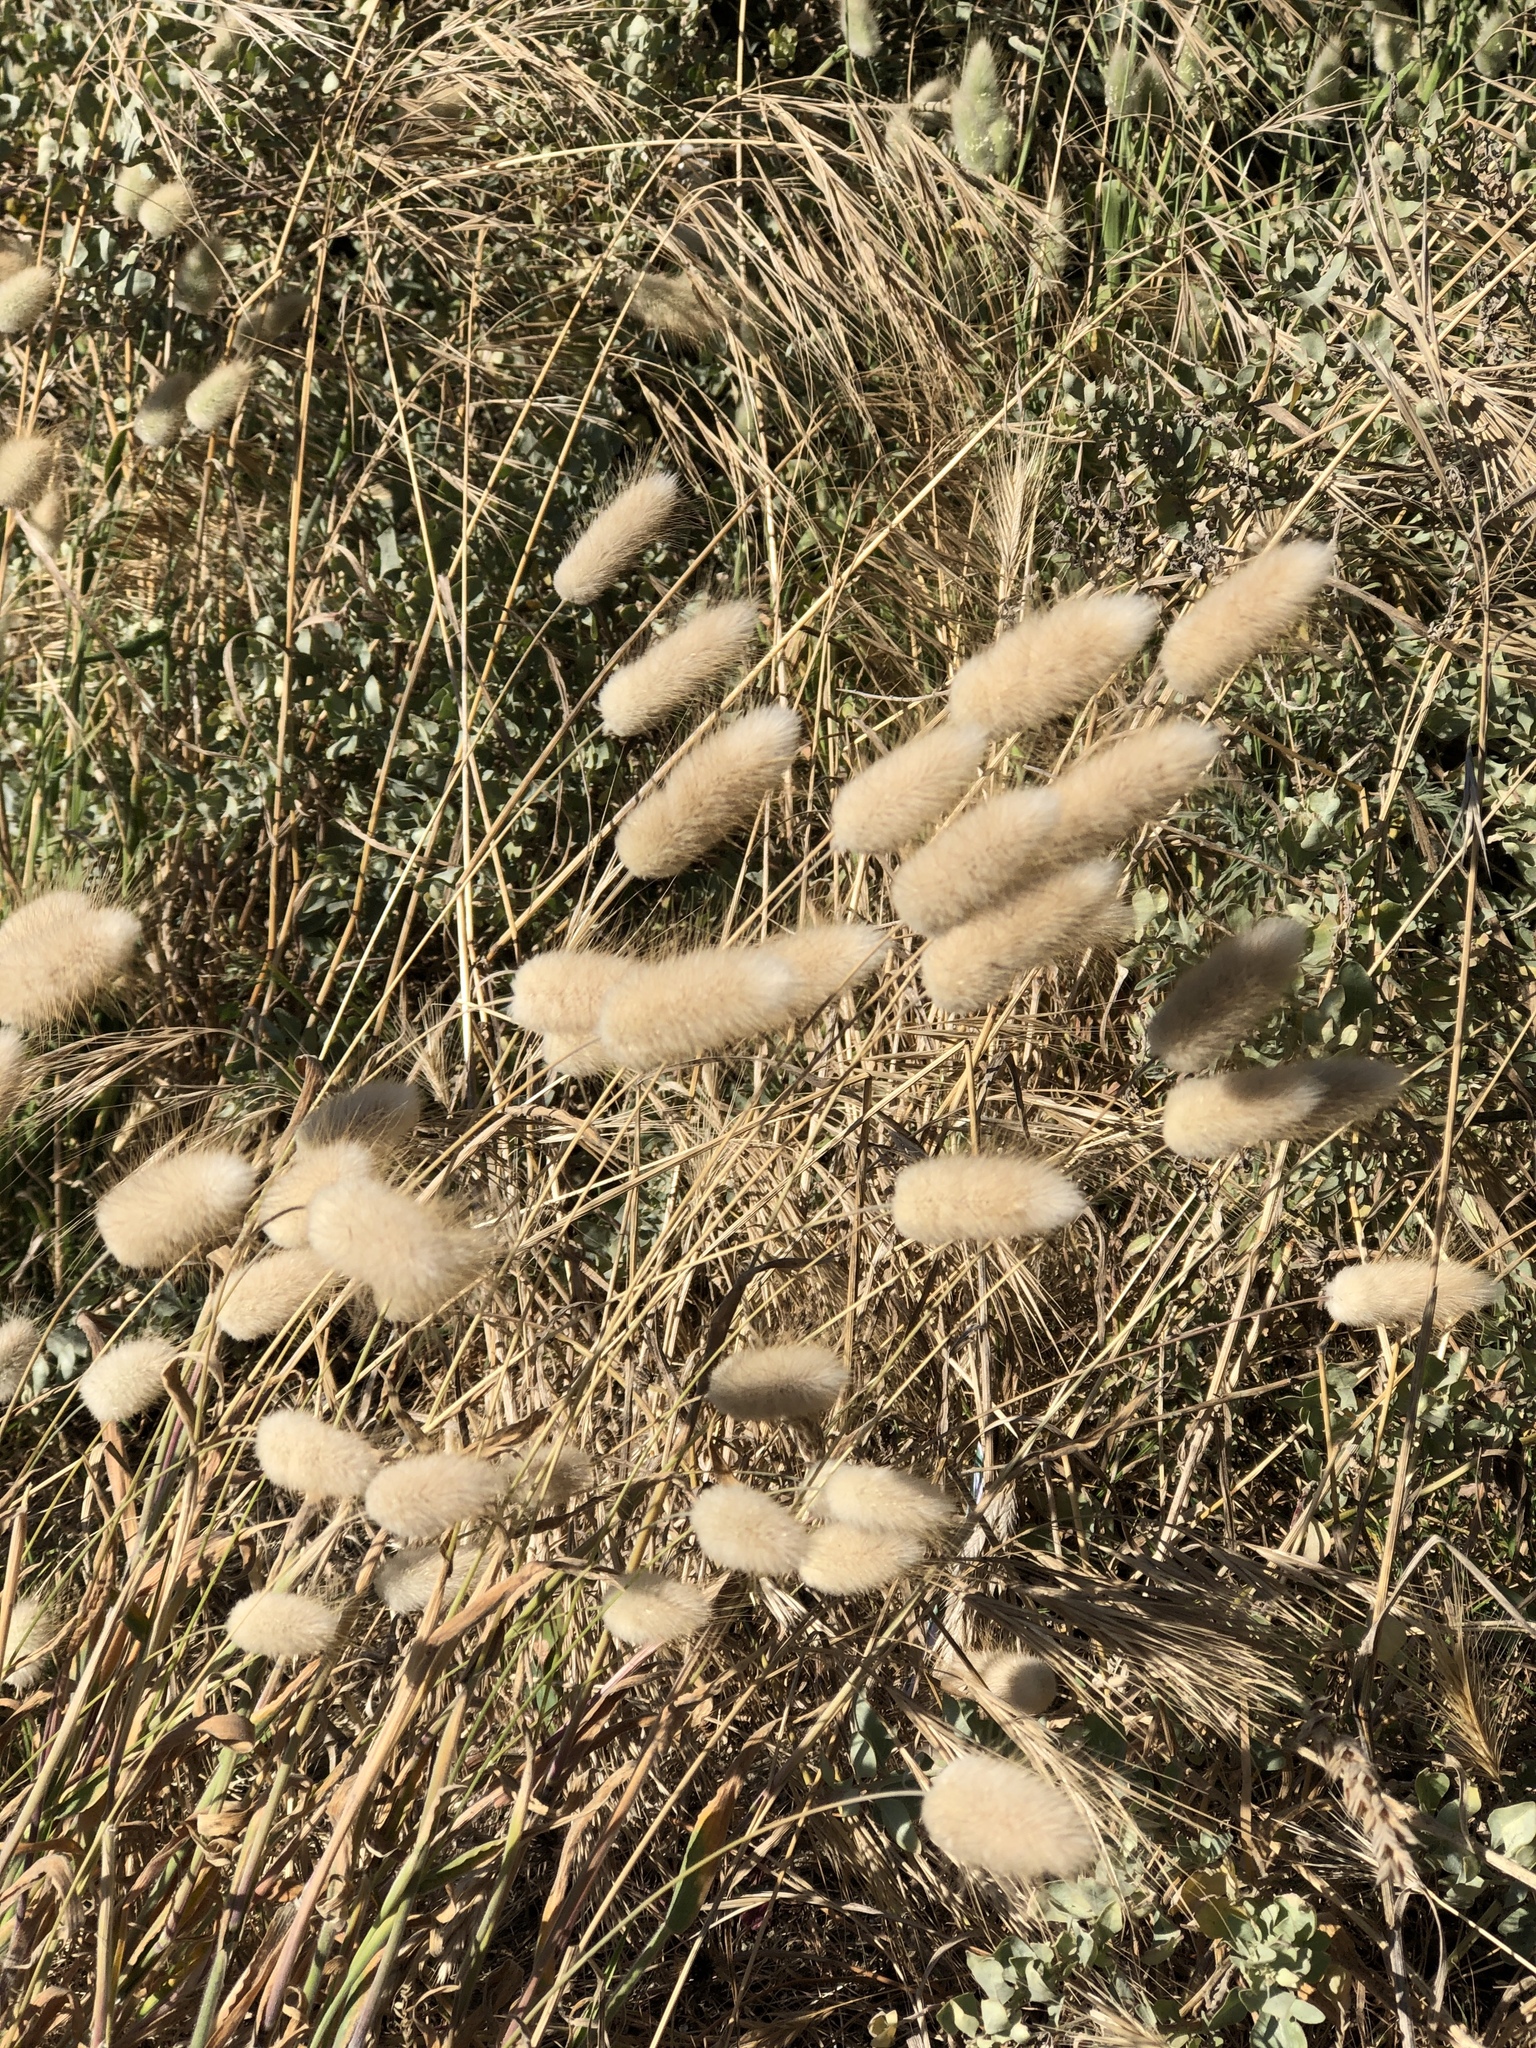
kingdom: Plantae
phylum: Tracheophyta
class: Liliopsida
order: Poales
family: Poaceae
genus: Lagurus
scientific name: Lagurus ovatus
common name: Hare's-tail
